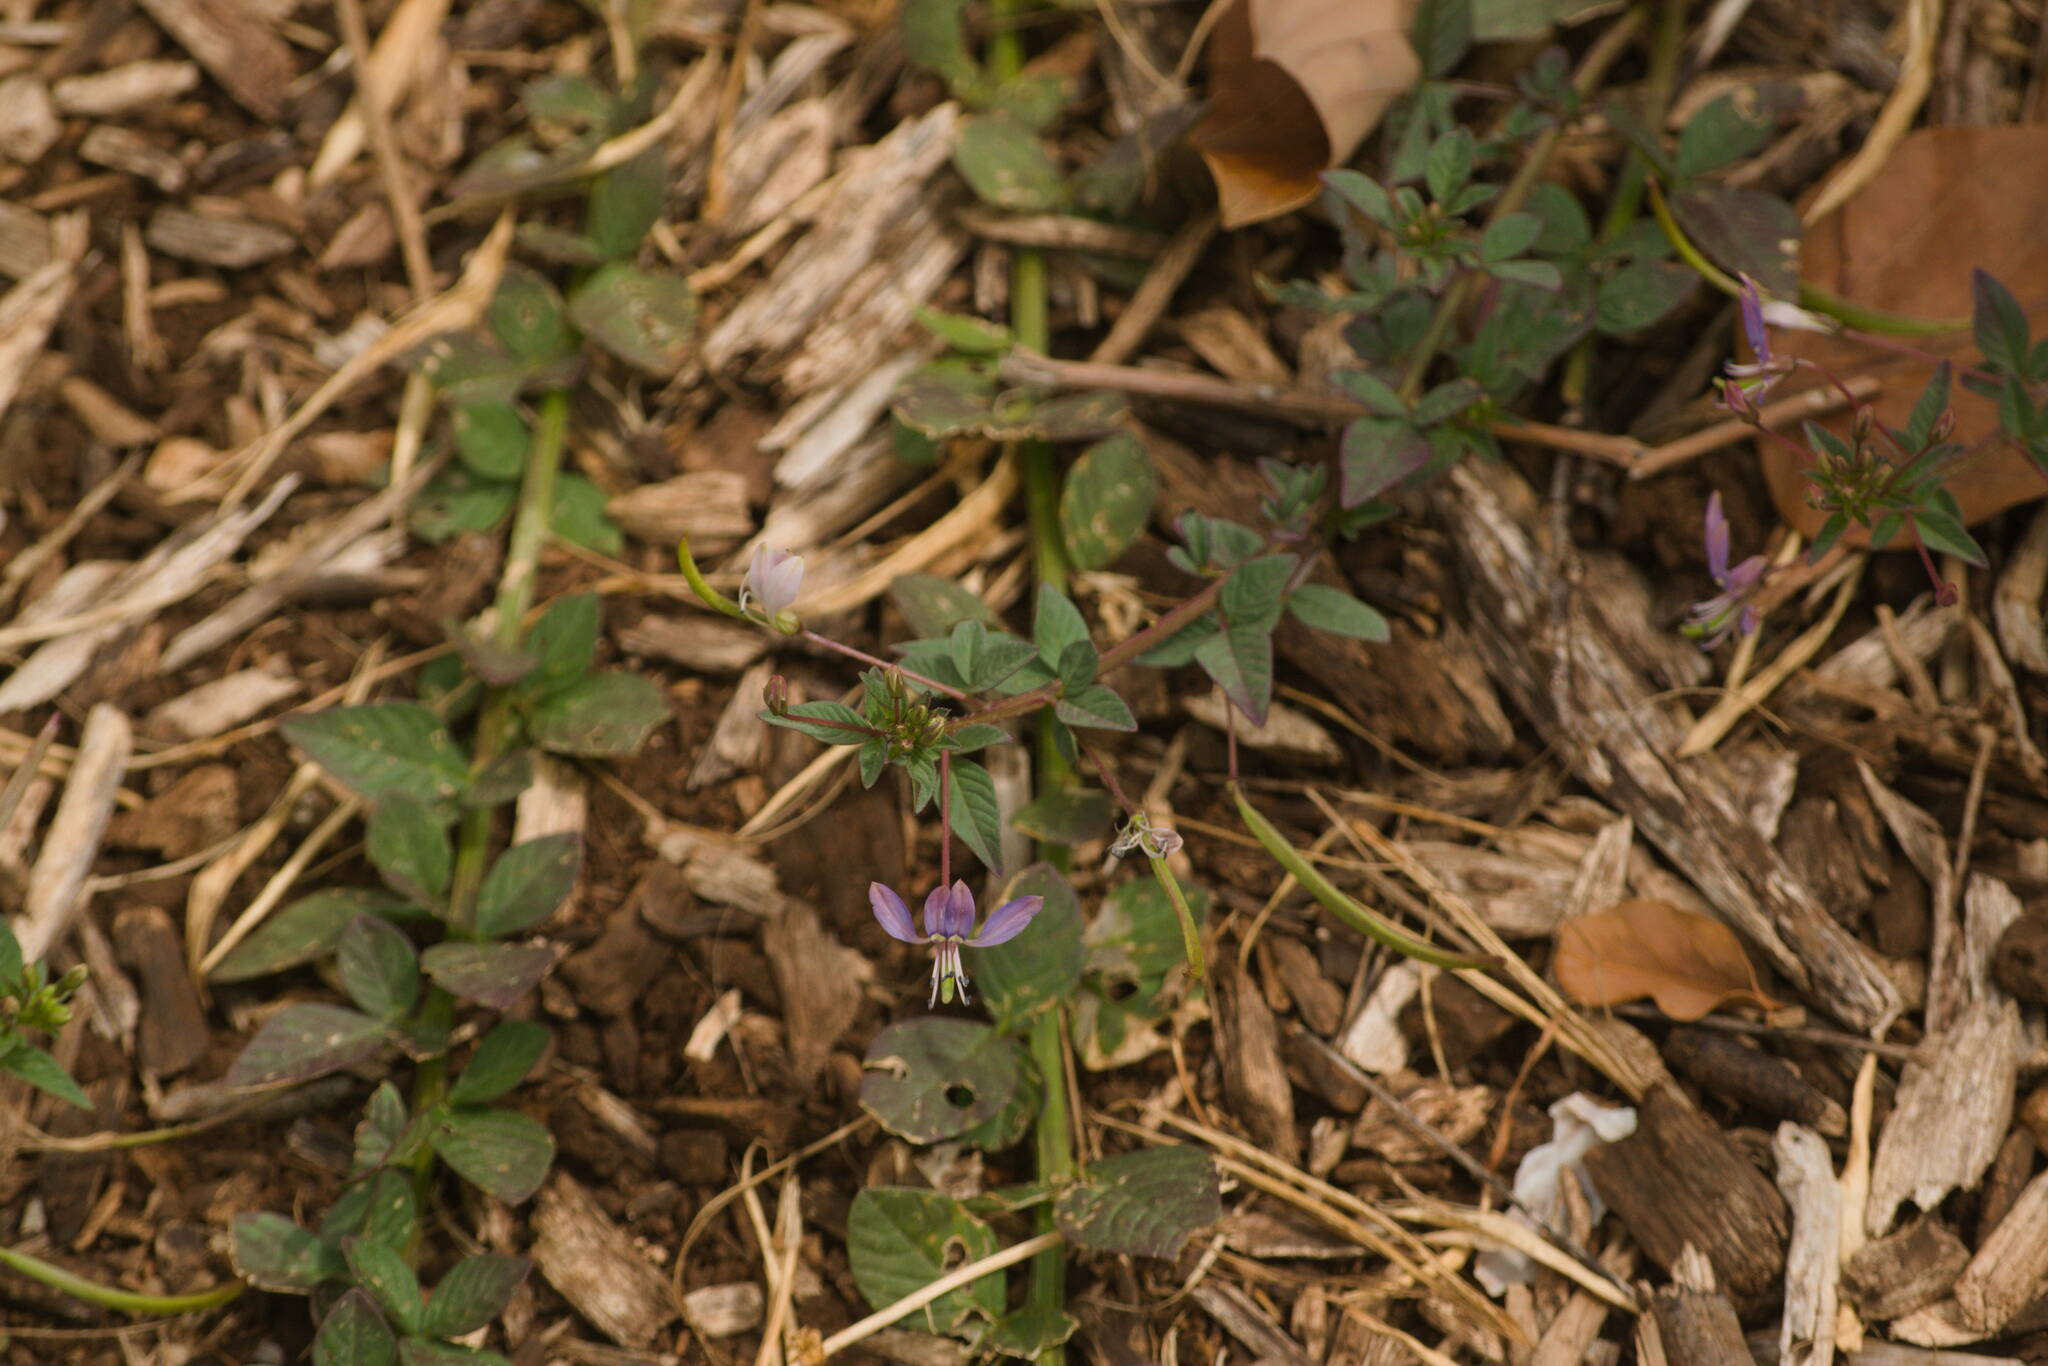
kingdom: Plantae
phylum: Tracheophyta
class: Magnoliopsida
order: Brassicales
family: Cleomaceae
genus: Sieruela
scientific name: Sieruela rutidosperma
